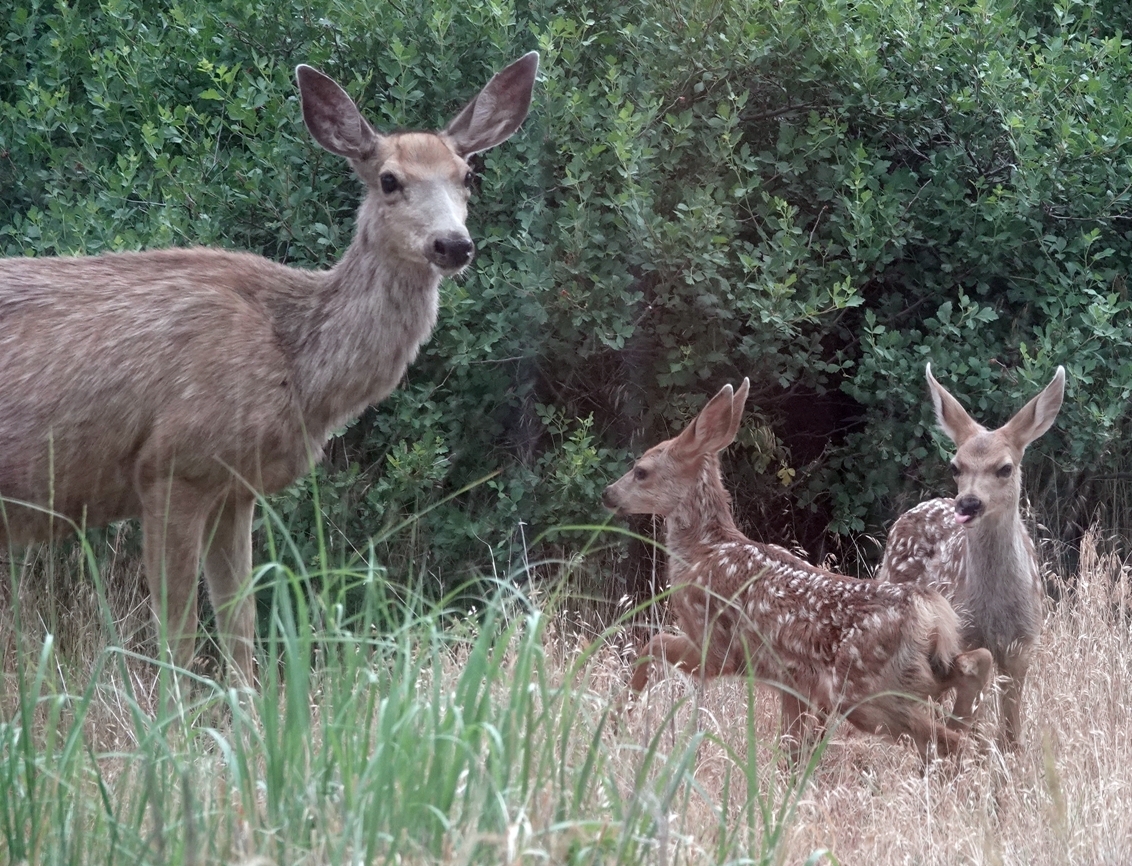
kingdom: Animalia
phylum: Chordata
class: Mammalia
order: Artiodactyla
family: Cervidae
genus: Odocoileus
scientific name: Odocoileus hemionus
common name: Mule deer
